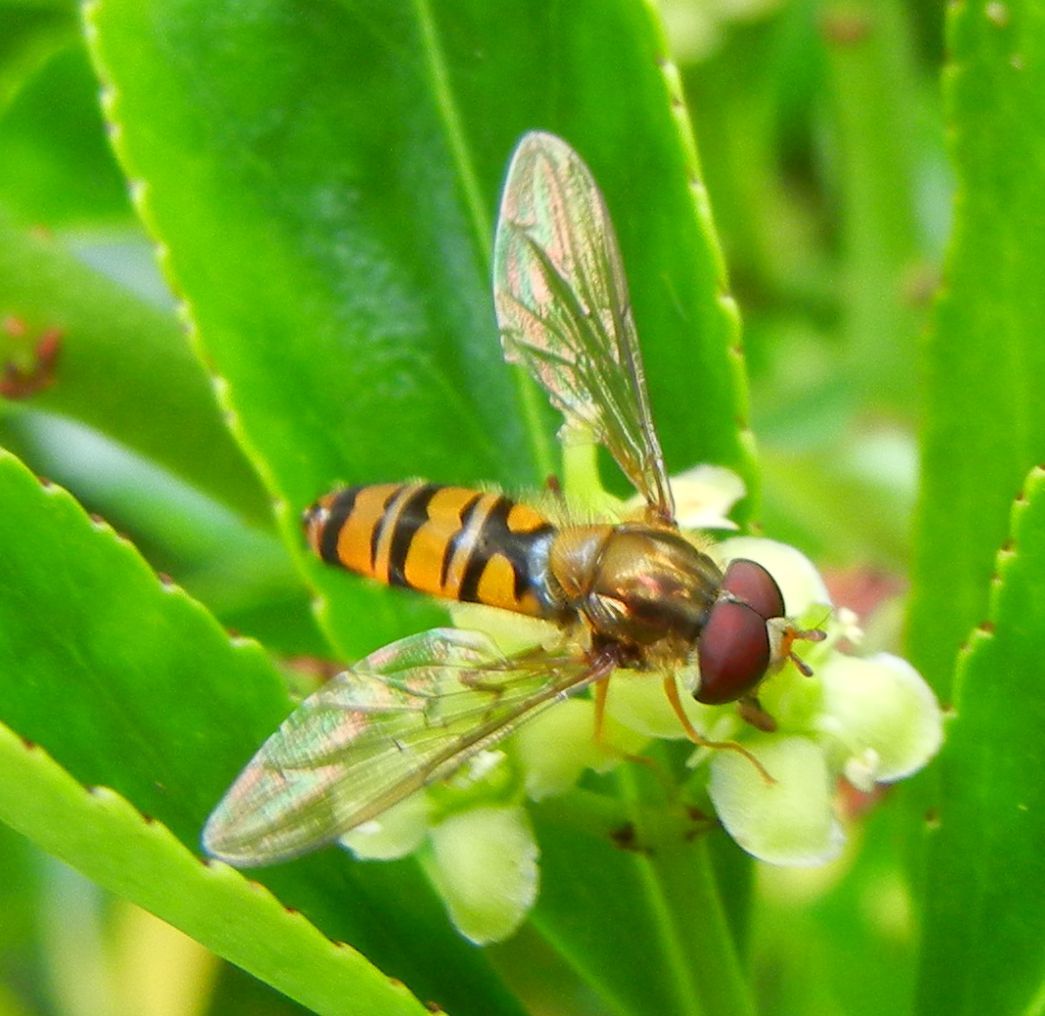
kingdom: Animalia
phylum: Arthropoda
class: Insecta
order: Diptera
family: Syrphidae
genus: Episyrphus
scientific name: Episyrphus balteatus
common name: Marmalade hoverfly
